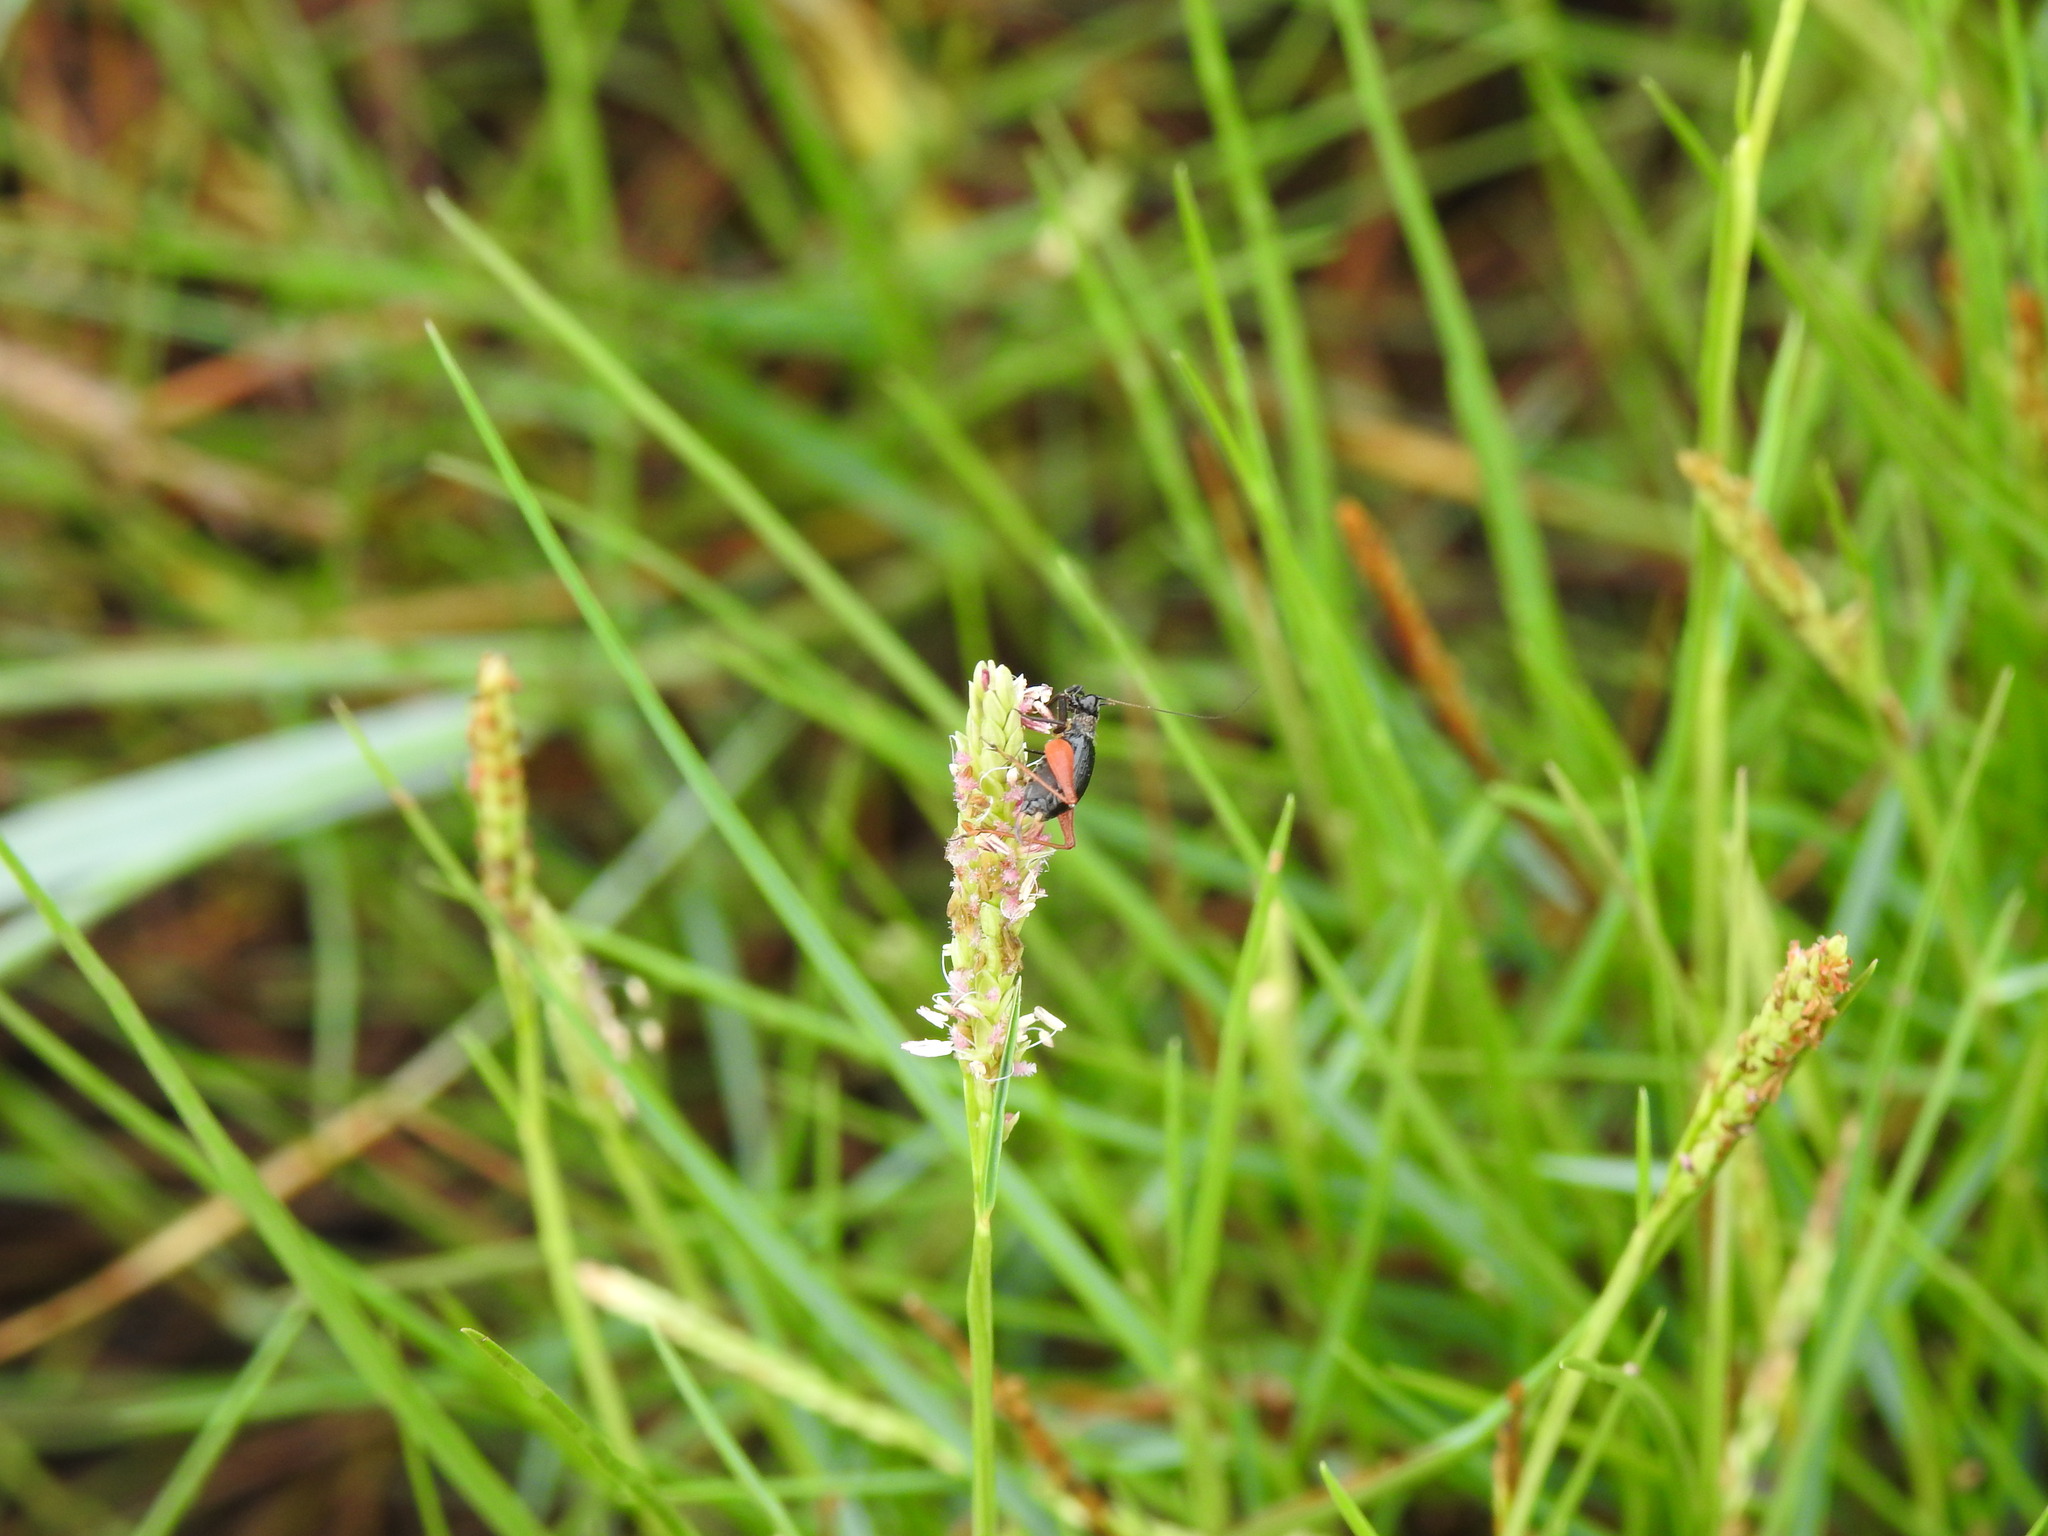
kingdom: Animalia
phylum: Arthropoda
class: Insecta
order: Orthoptera
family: Trigonidiidae
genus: Trigonidium
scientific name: Trigonidium cicindeloides
